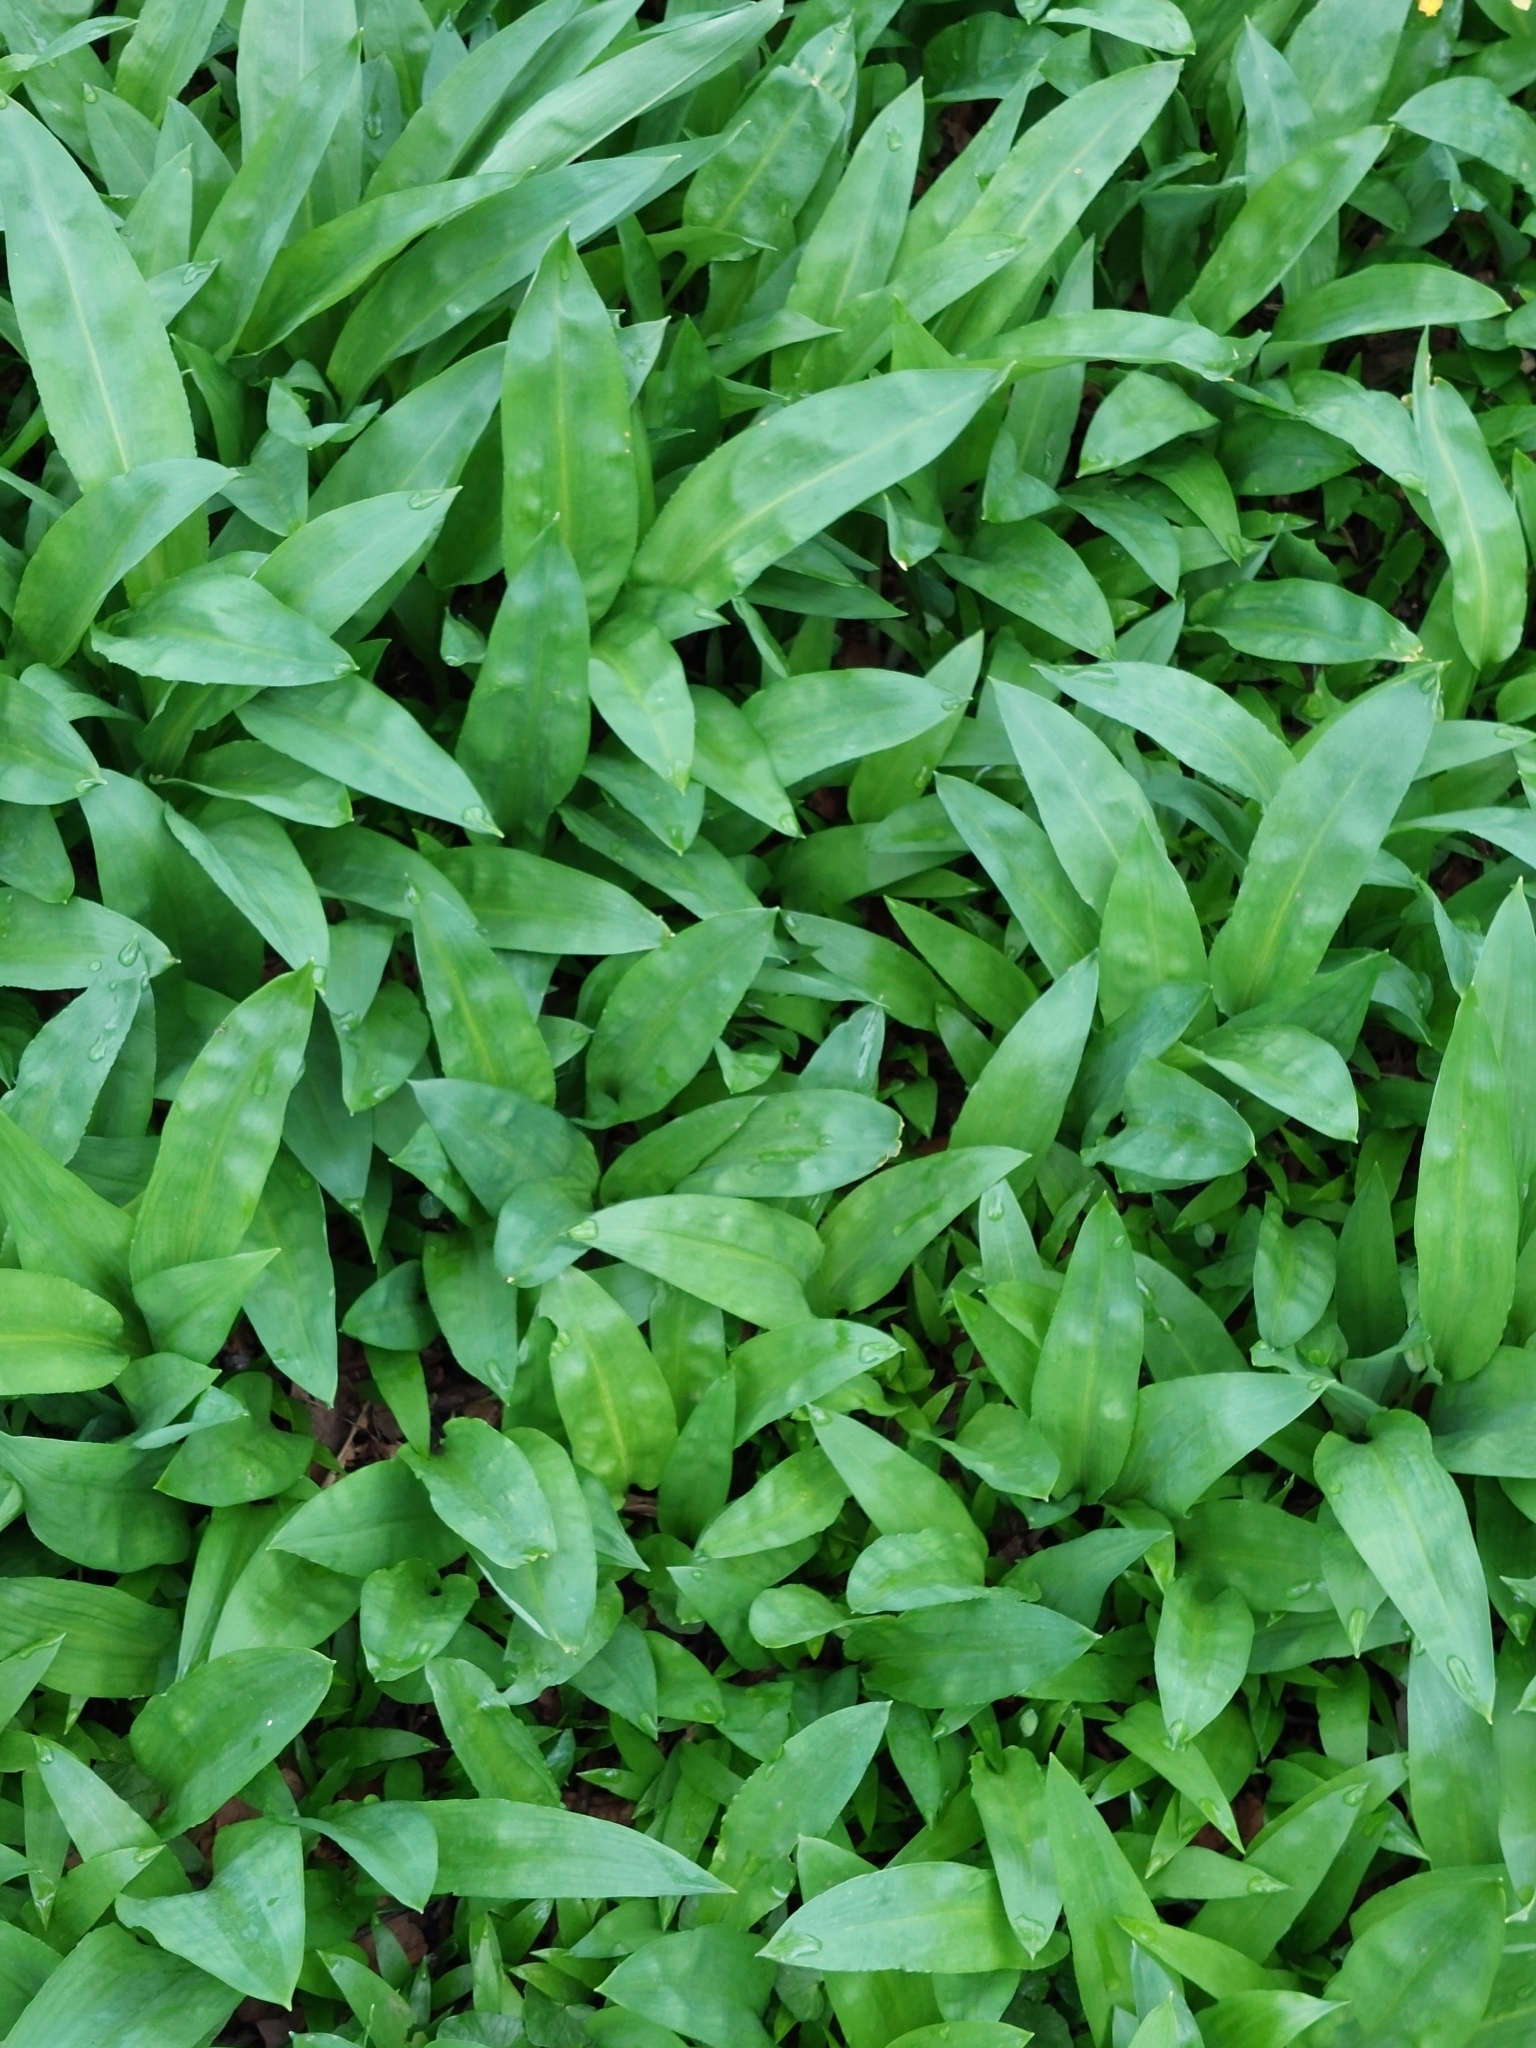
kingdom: Plantae
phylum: Tracheophyta
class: Liliopsida
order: Asparagales
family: Amaryllidaceae
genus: Allium
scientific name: Allium ursinum
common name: Ramsons
